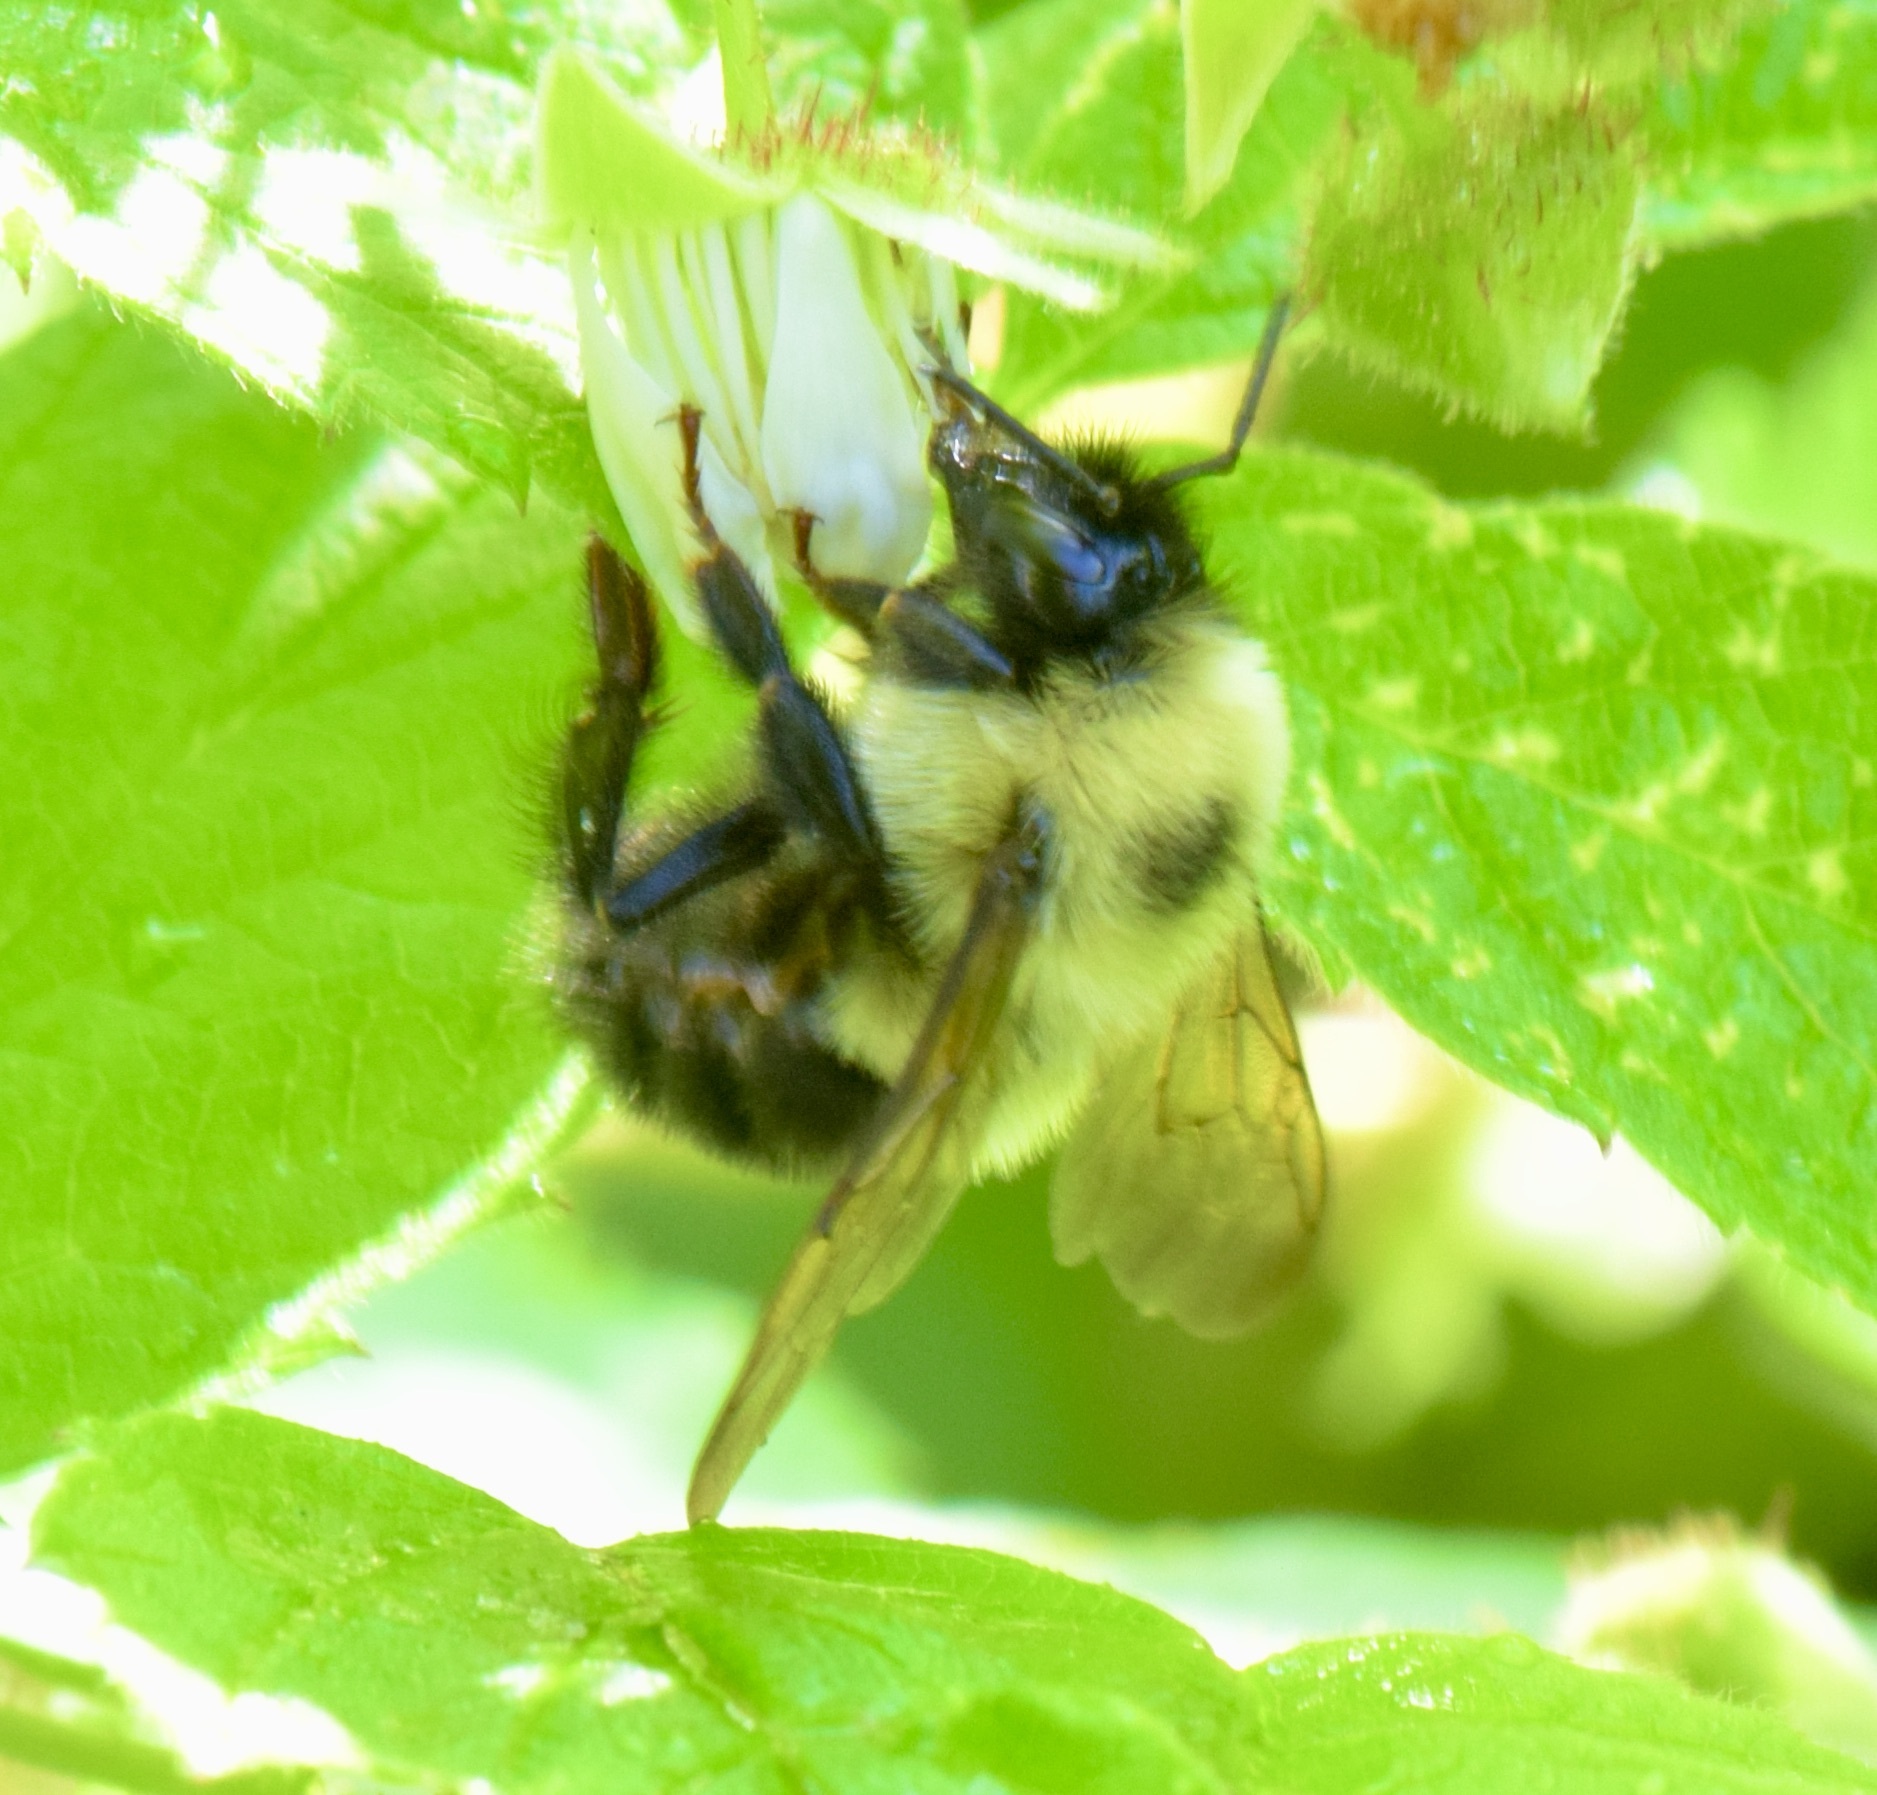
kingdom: Animalia
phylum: Arthropoda
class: Insecta
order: Hymenoptera
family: Apidae
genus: Bombus
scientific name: Bombus bimaculatus
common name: Two-spotted bumble bee
